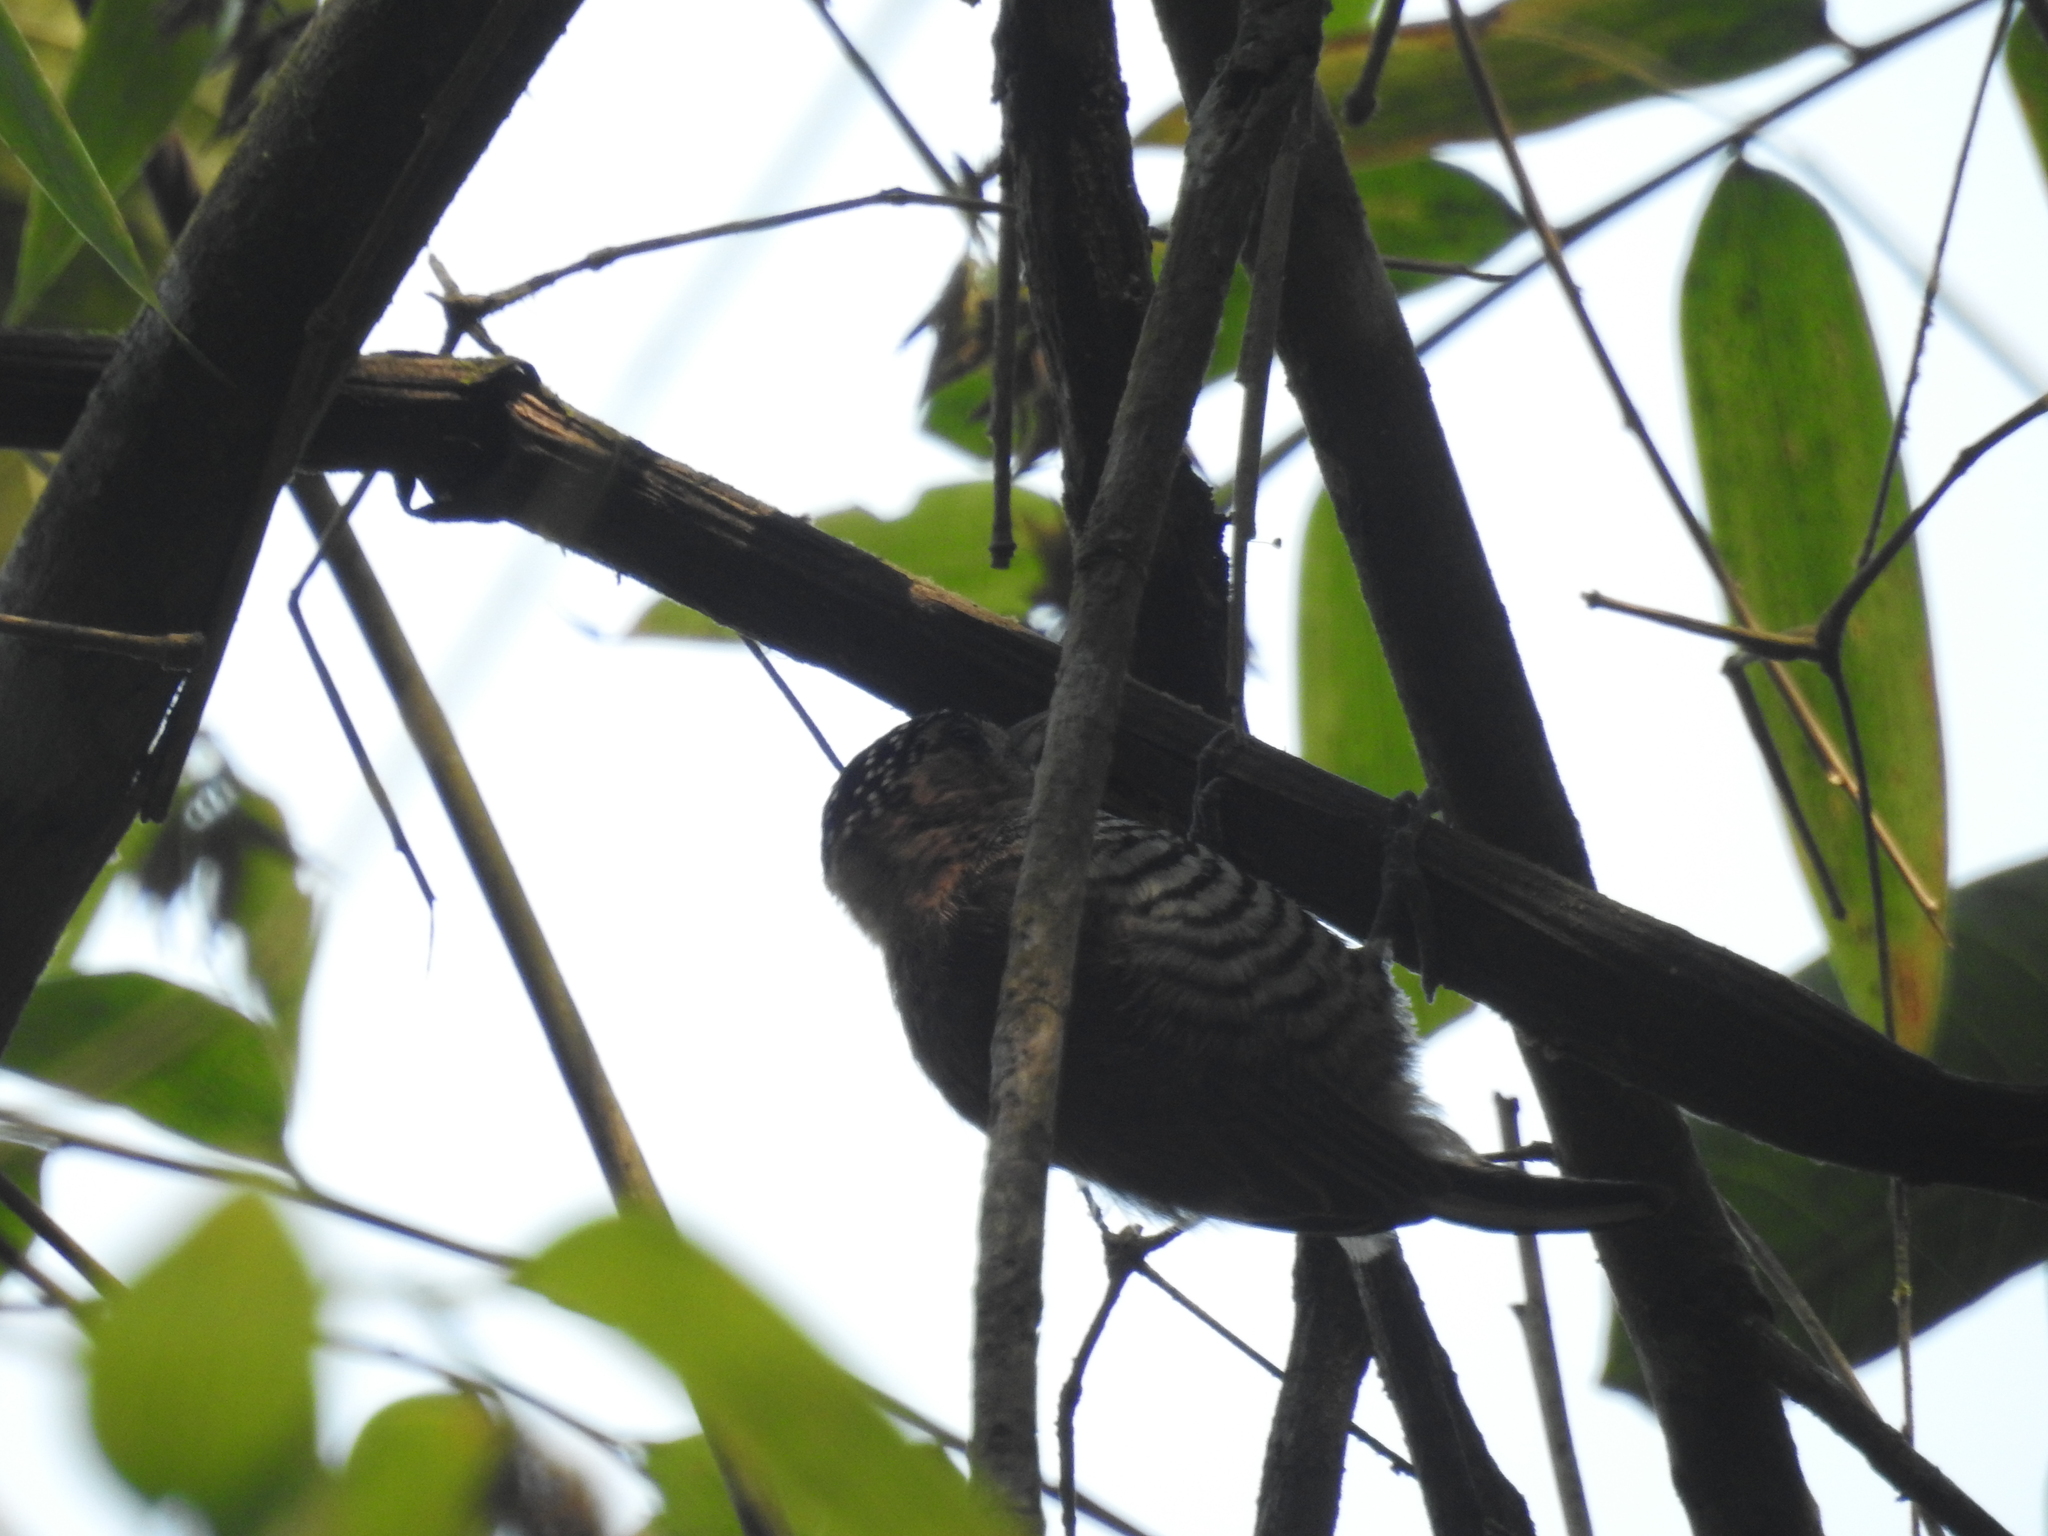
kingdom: Animalia
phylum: Chordata
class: Aves
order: Piciformes
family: Picidae
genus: Picumnus
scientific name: Picumnus temminckii
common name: Ochre-collared piculet
